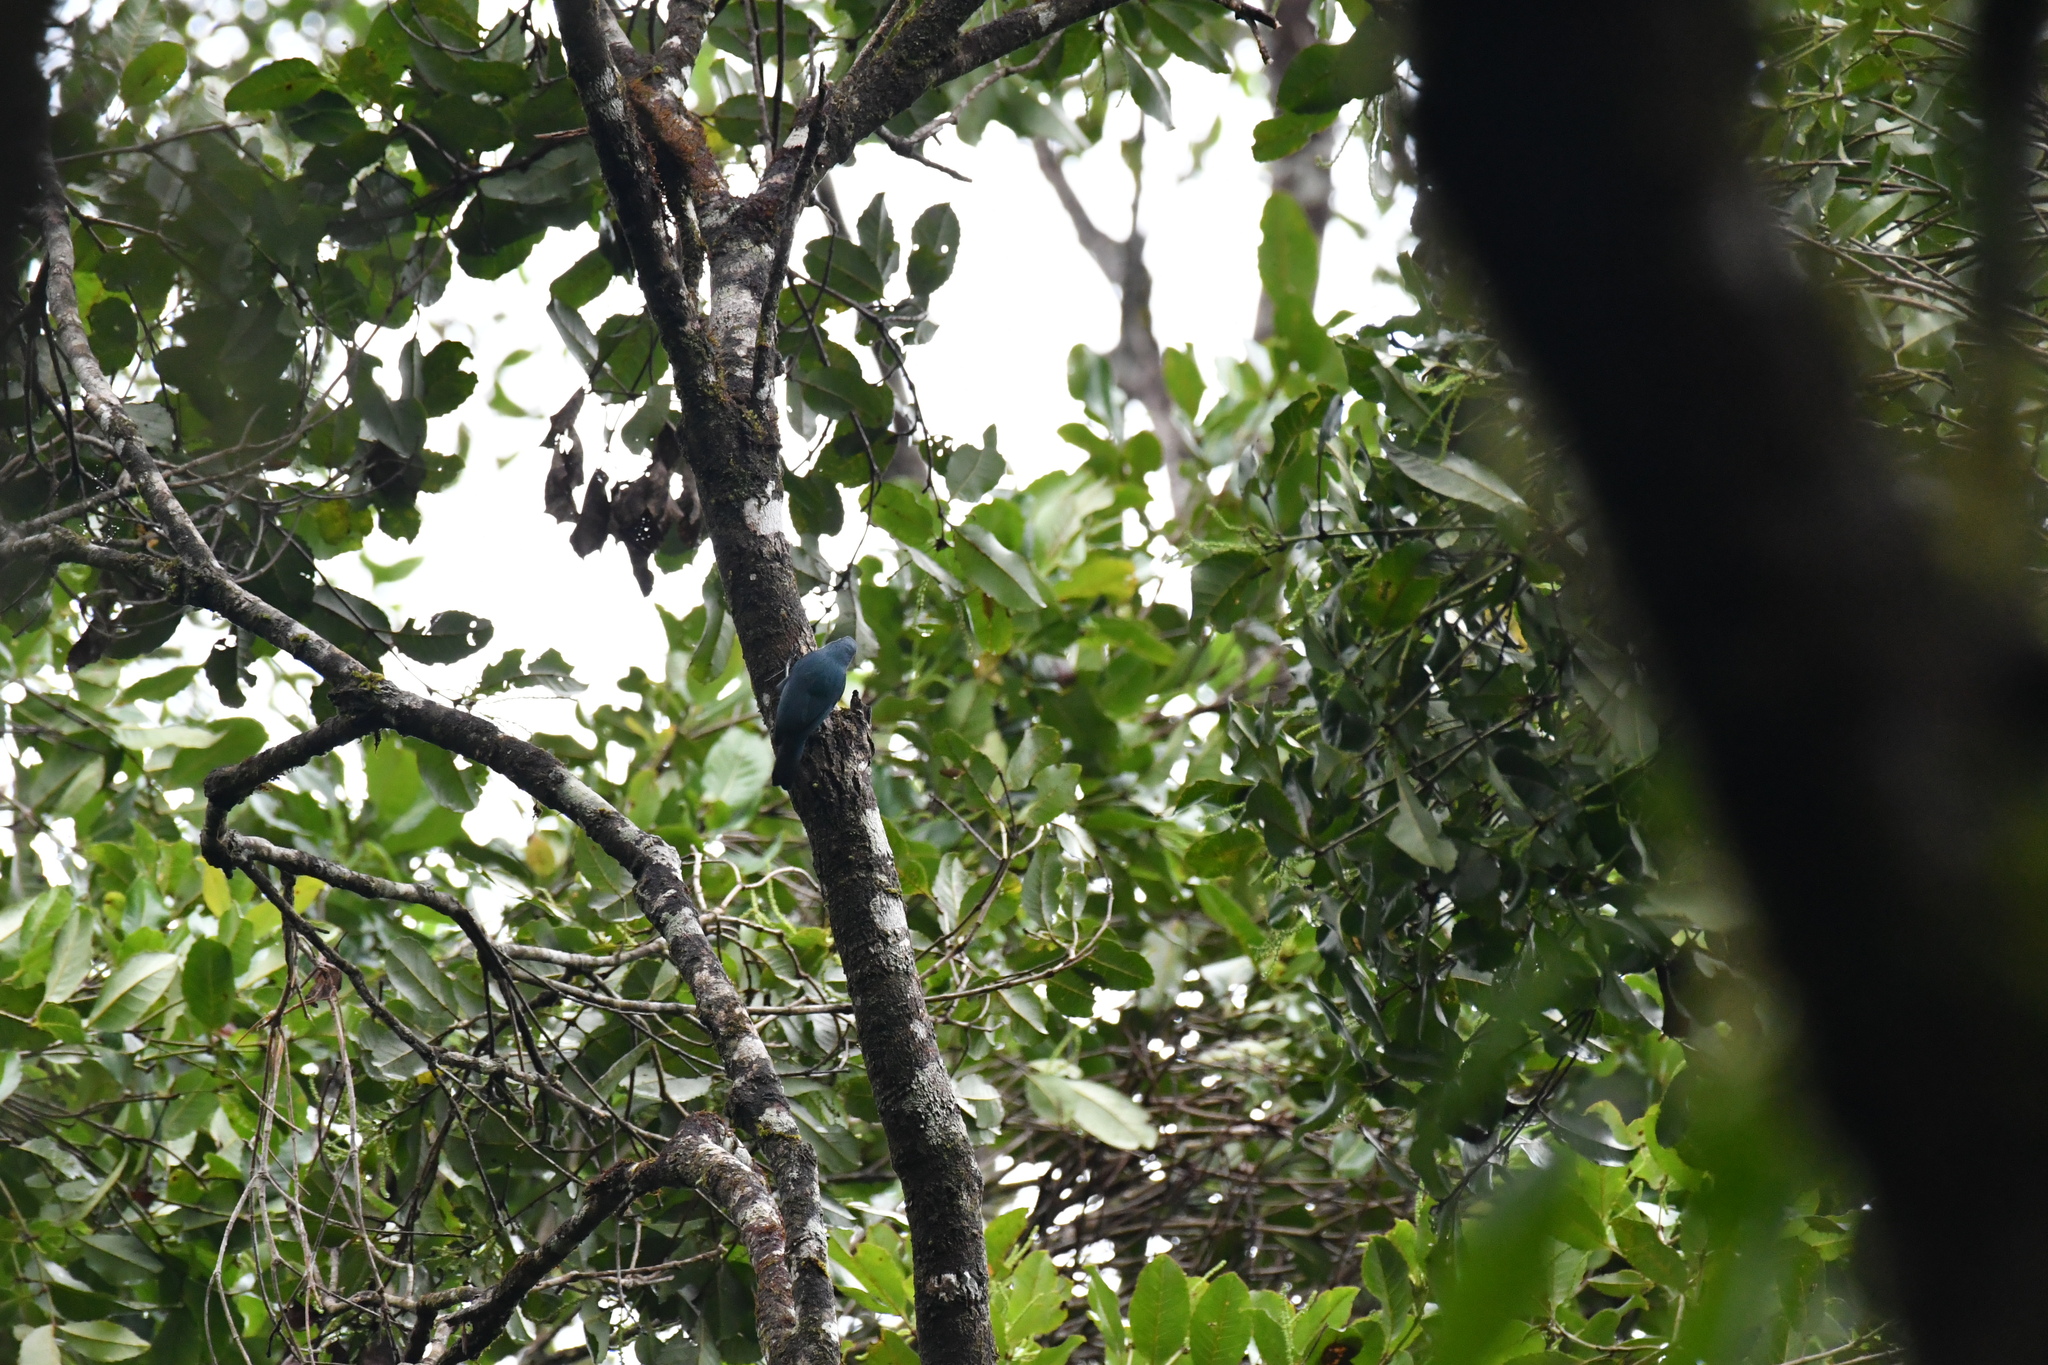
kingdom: Animalia
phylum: Chordata
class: Aves
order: Passeriformes
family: Vangidae
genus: Hypositta
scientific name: Hypositta corallirostris
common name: Nuthatch vanga
